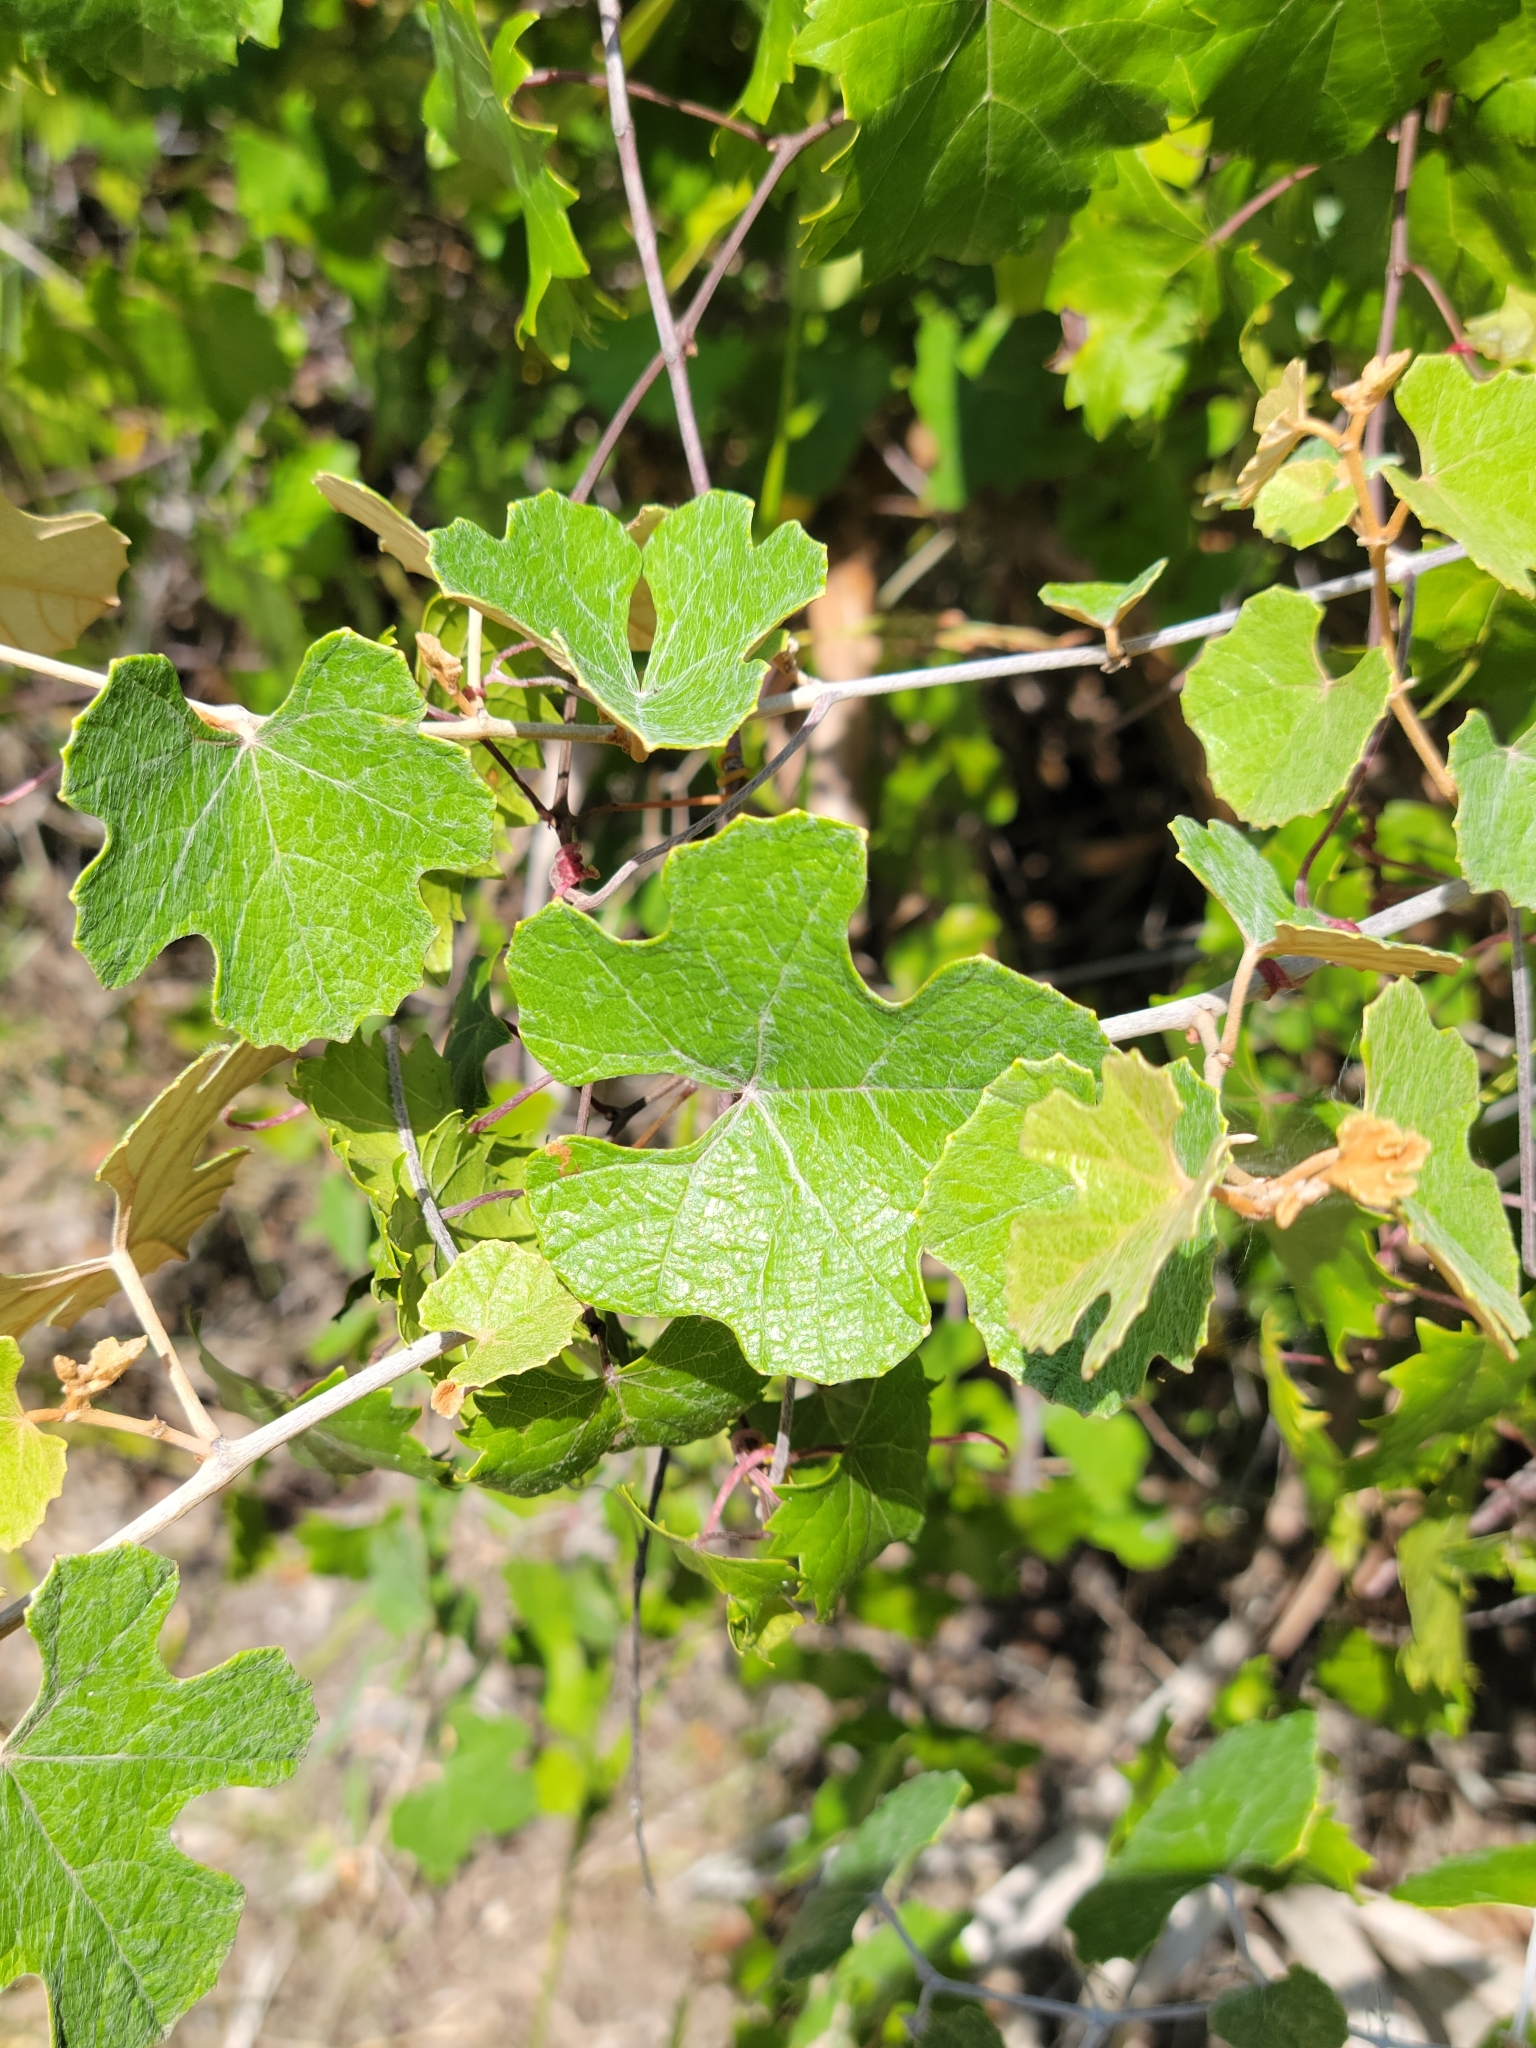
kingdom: Plantae
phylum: Tracheophyta
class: Magnoliopsida
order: Vitales
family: Vitaceae
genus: Vitis
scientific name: Vitis shuttleworthii
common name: Caloosa grape
